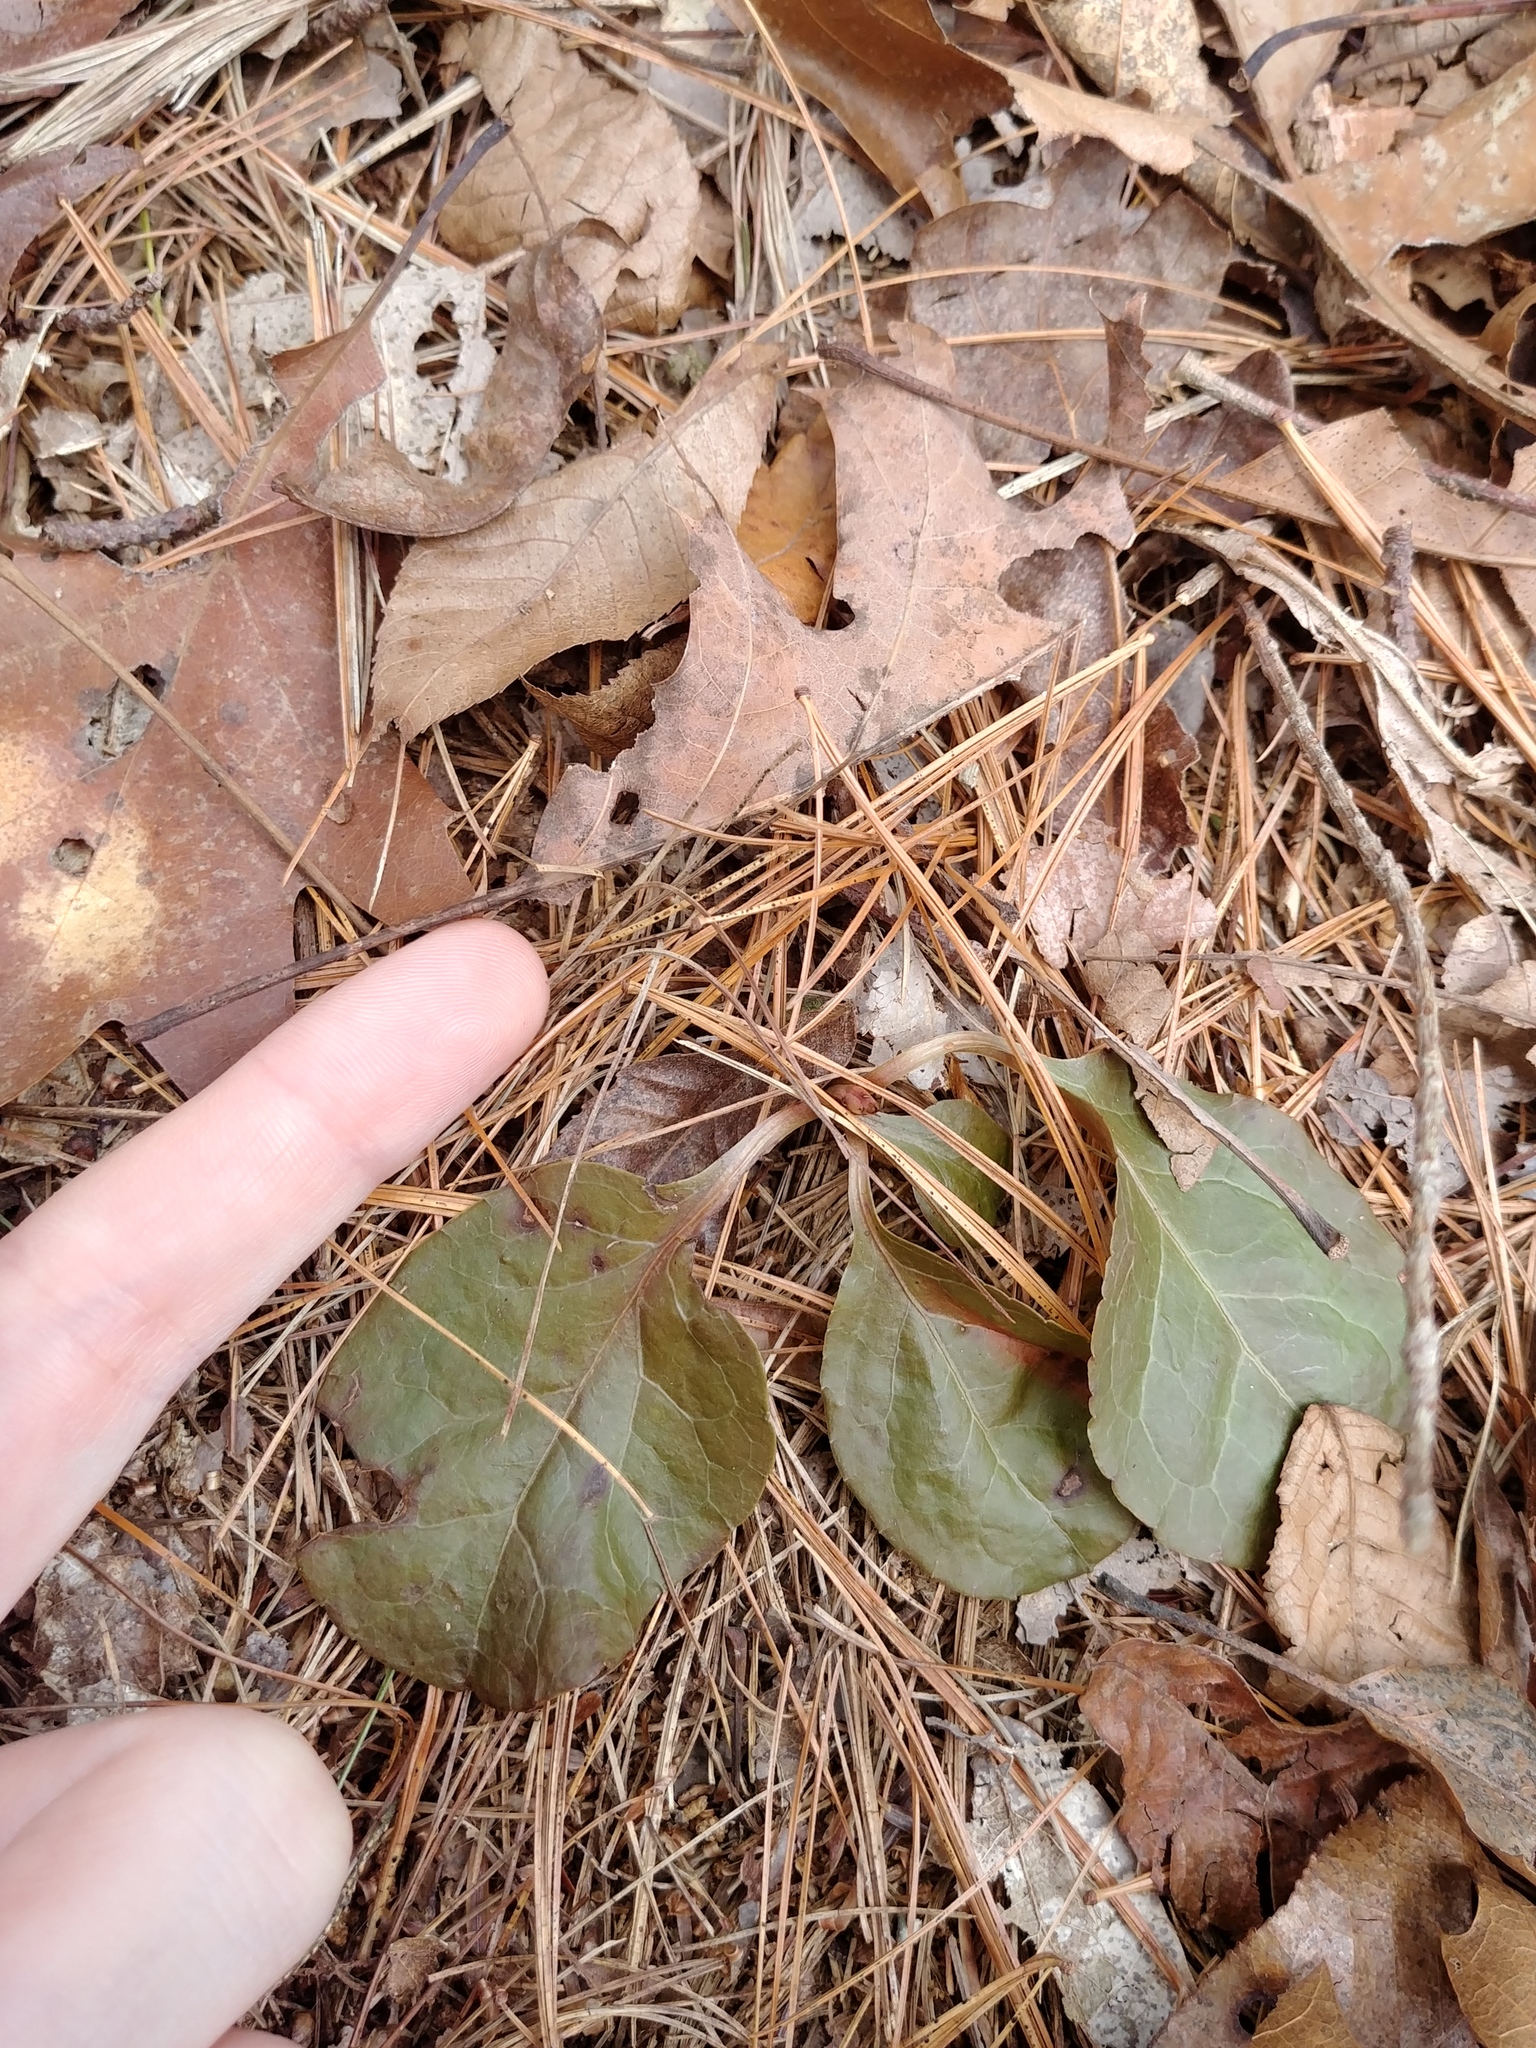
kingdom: Plantae
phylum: Tracheophyta
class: Magnoliopsida
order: Ericales
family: Ericaceae
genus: Pyrola
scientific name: Pyrola elliptica
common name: Shinleaf
